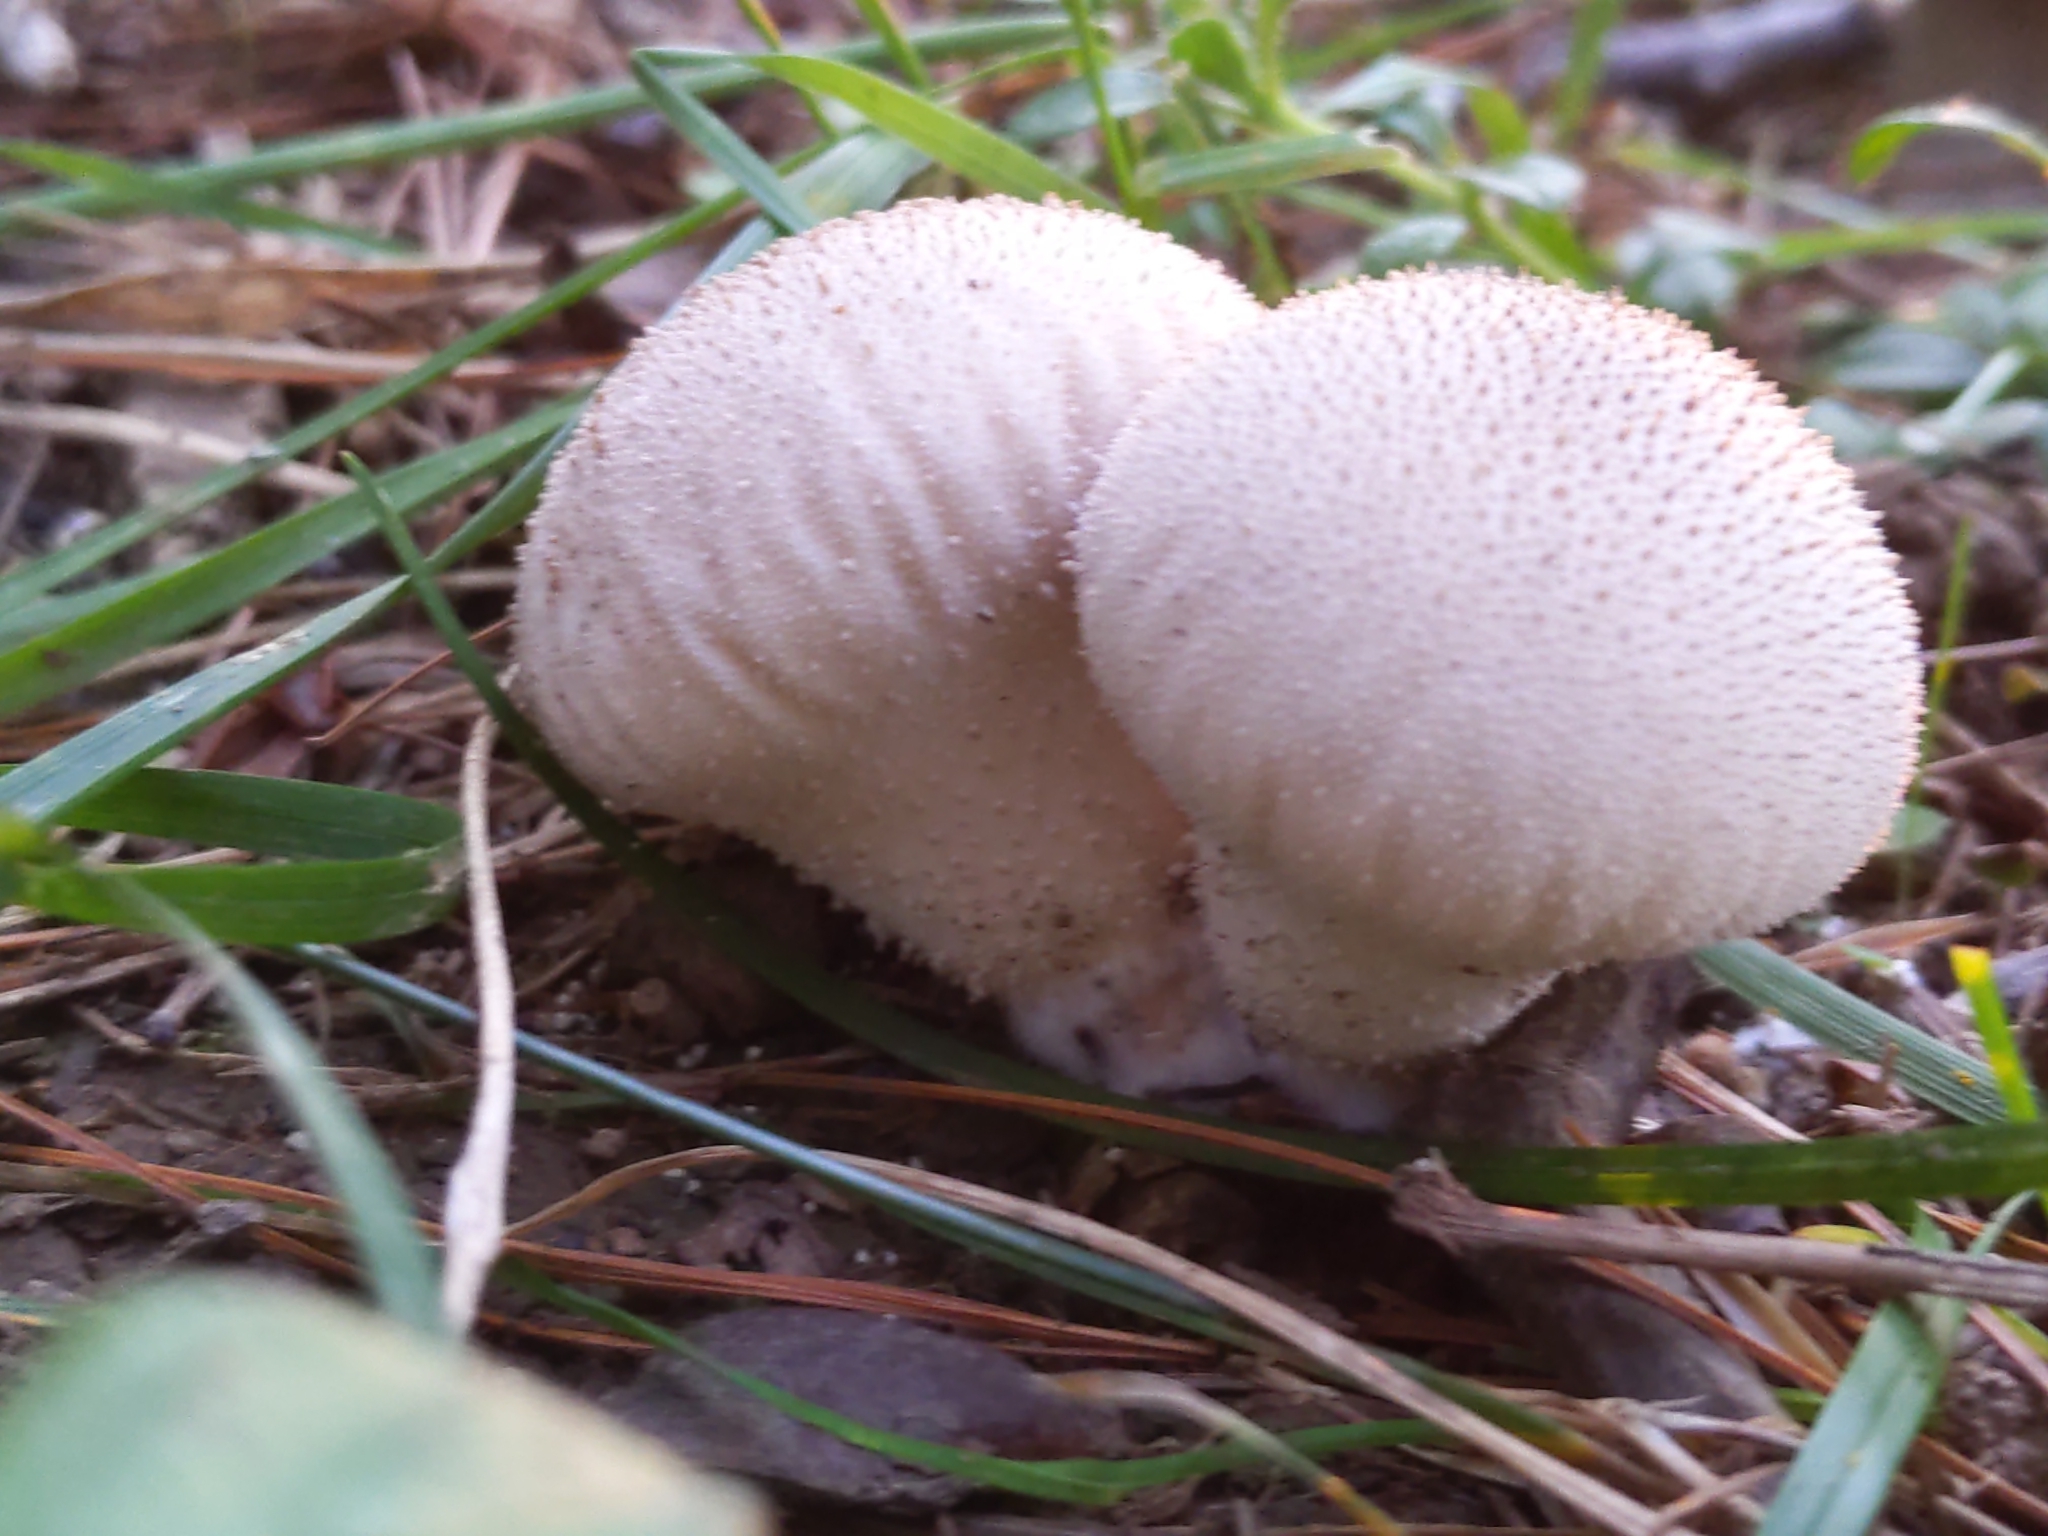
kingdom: Fungi
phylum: Basidiomycota
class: Agaricomycetes
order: Agaricales
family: Lycoperdaceae
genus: Lycoperdon
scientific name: Lycoperdon perlatum
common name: Common puffball
